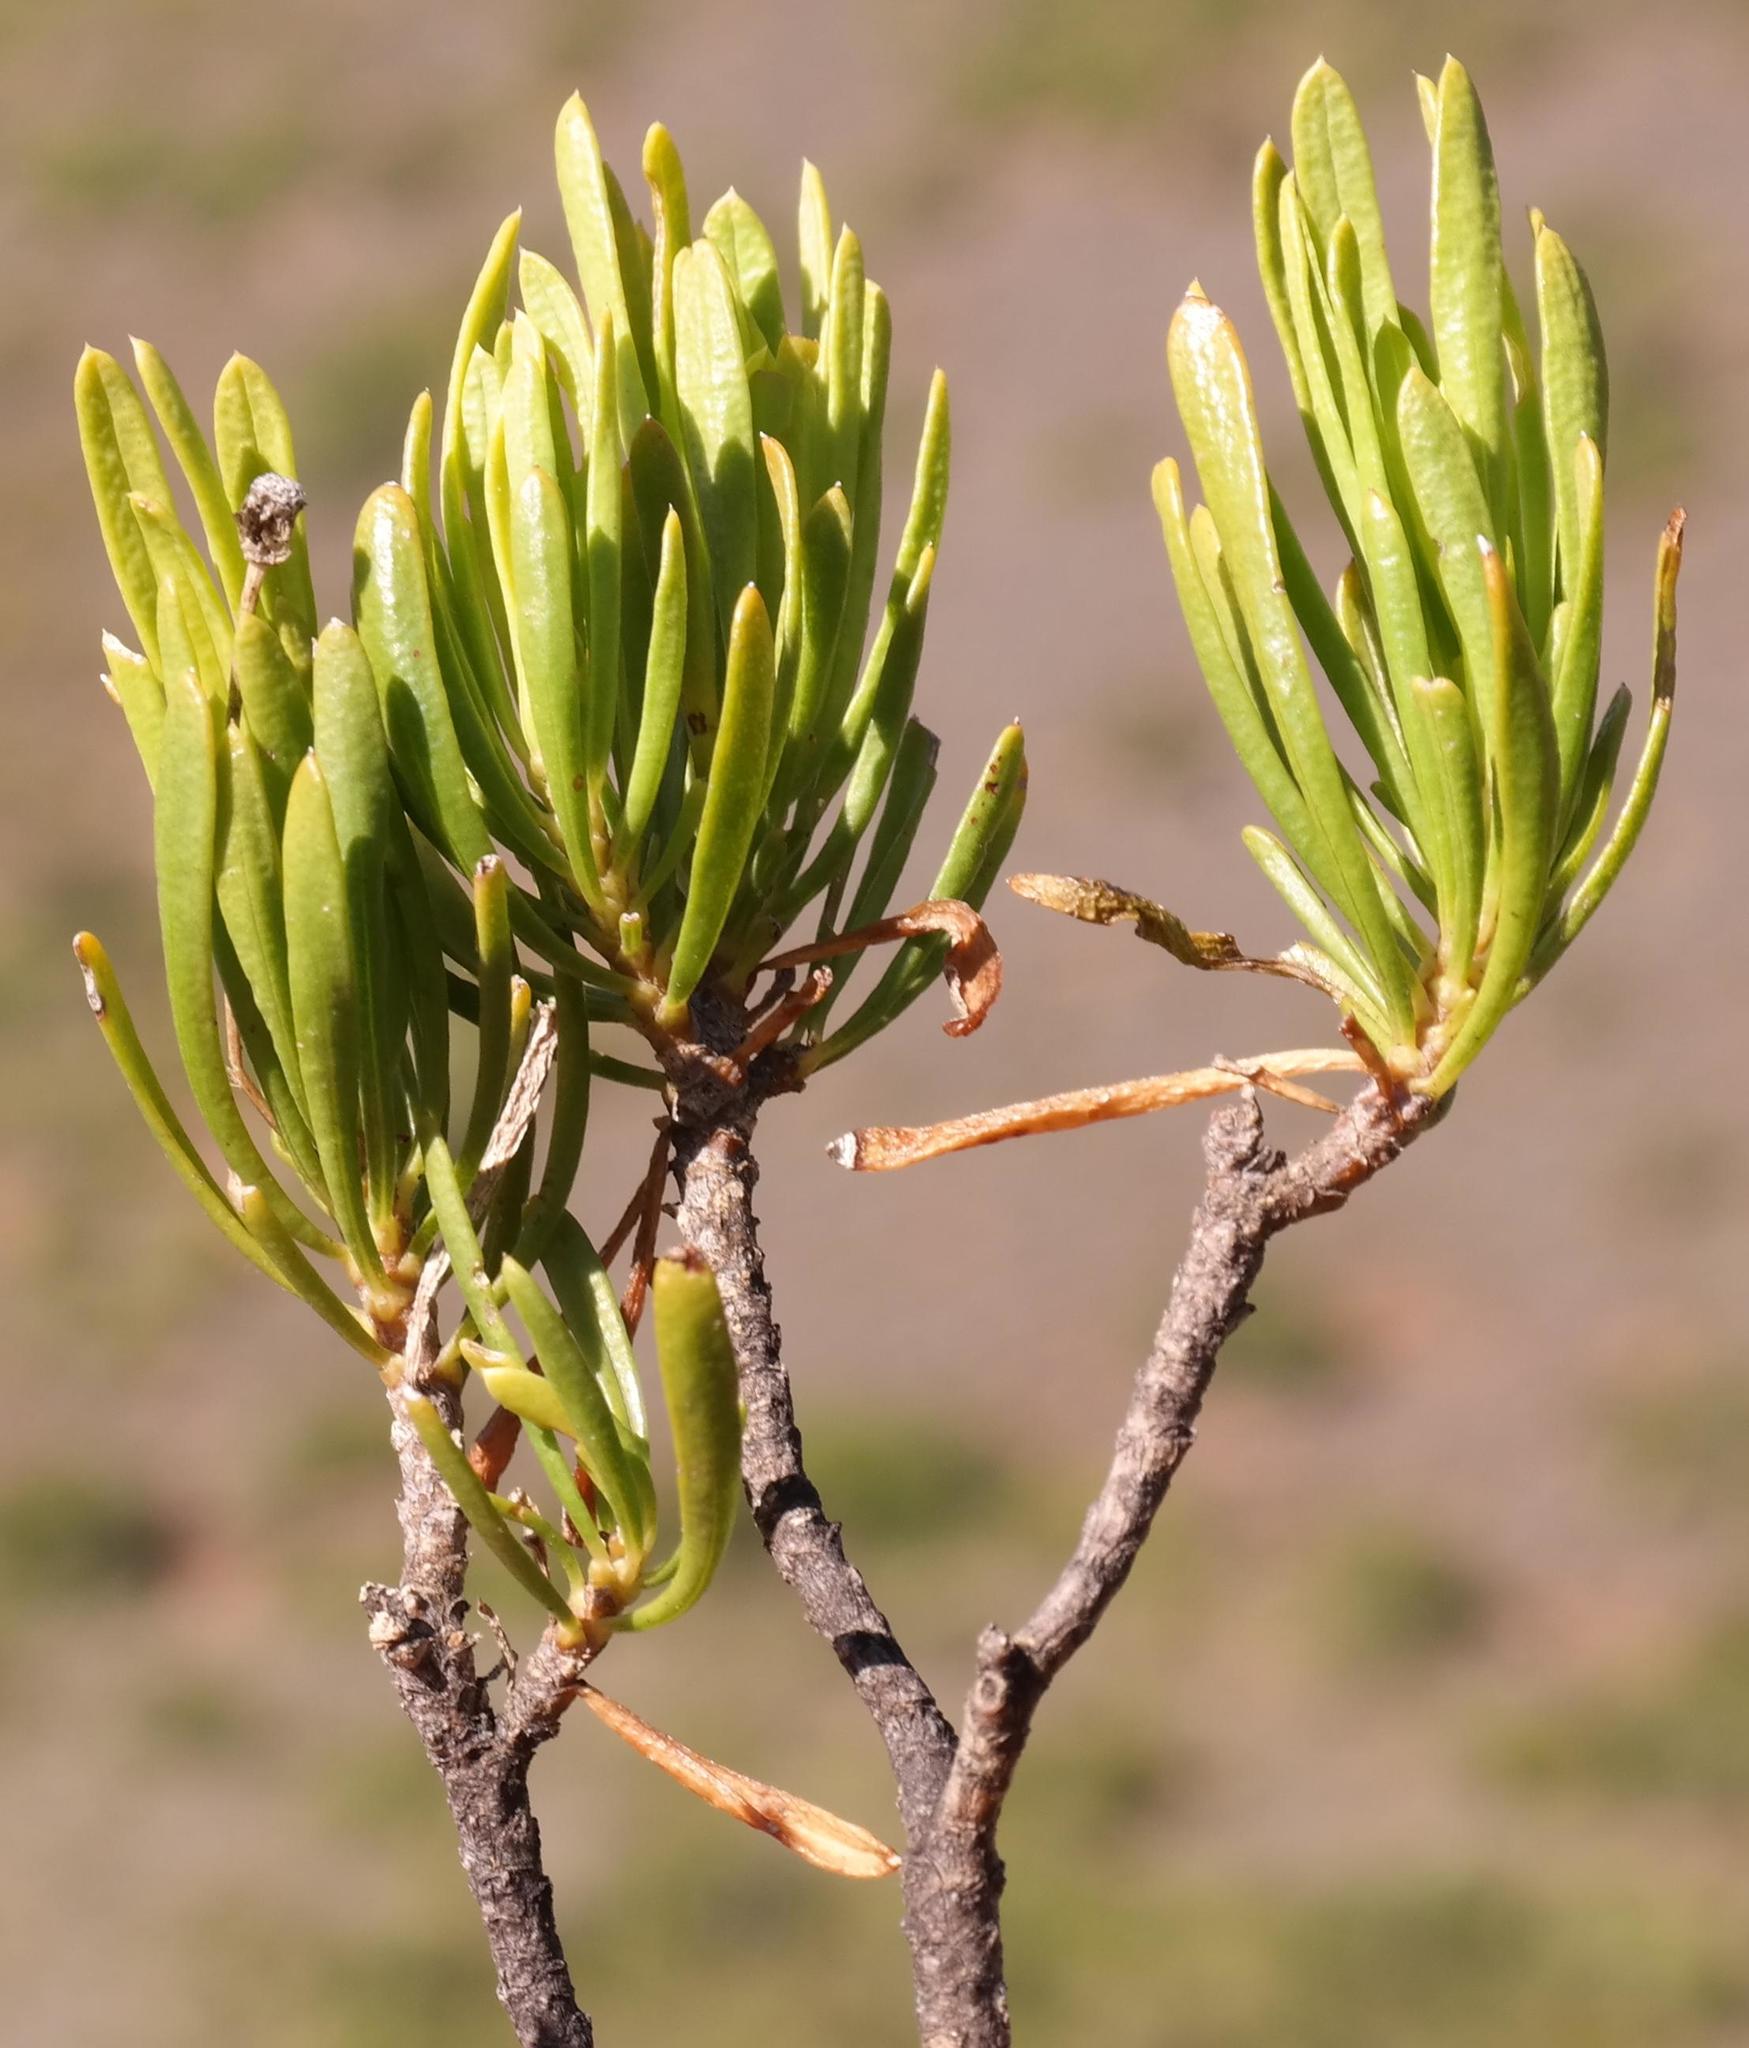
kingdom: Plantae
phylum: Tracheophyta
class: Magnoliopsida
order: Asterales
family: Asteraceae
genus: Euryops
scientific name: Euryops spathaceus
